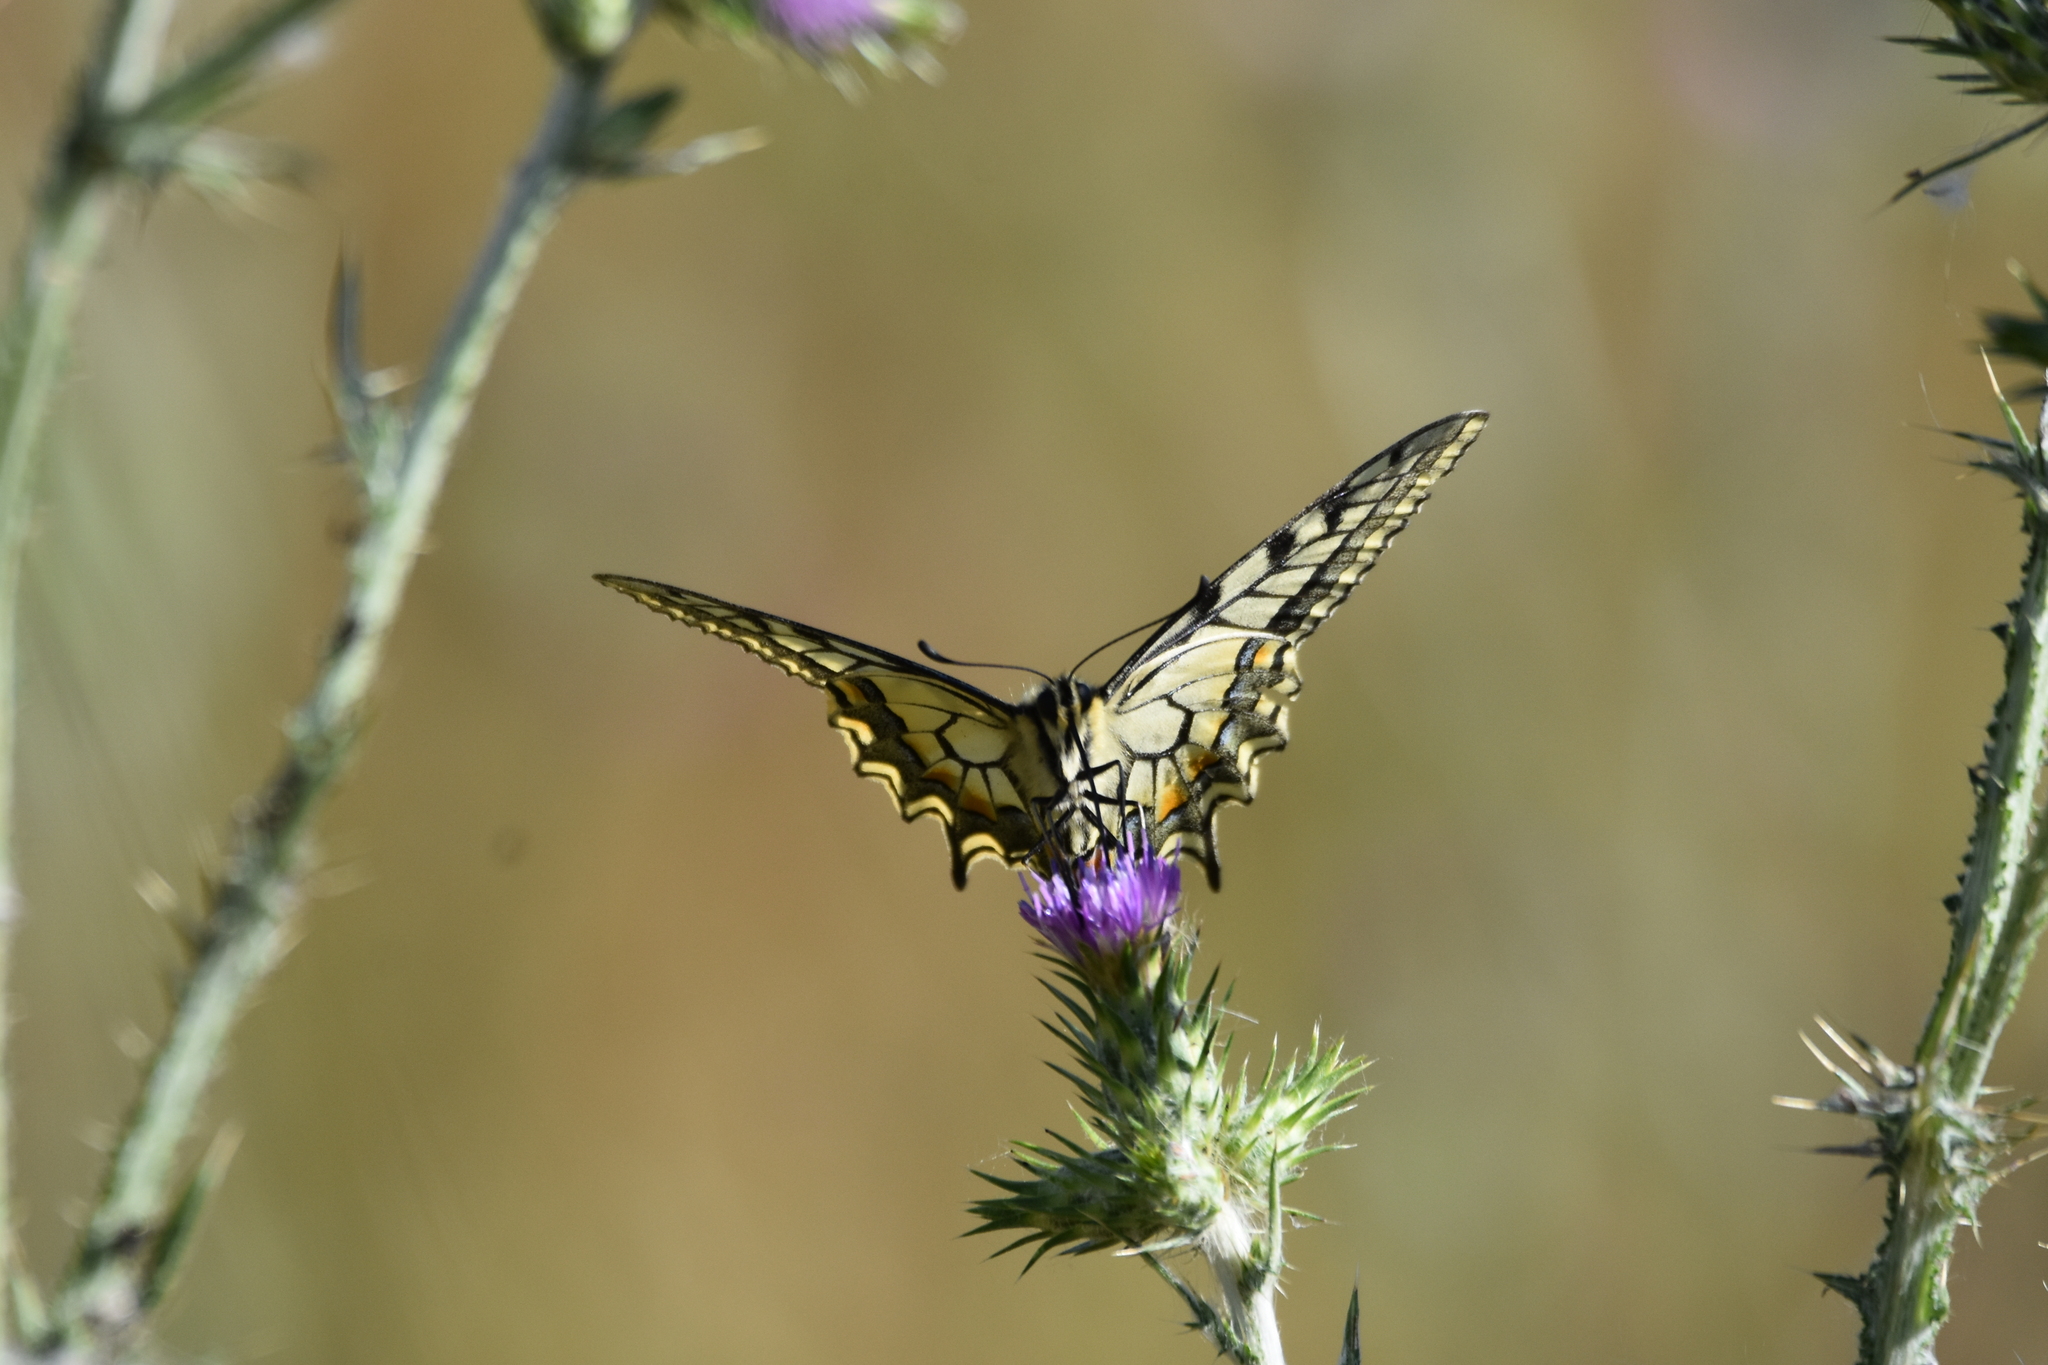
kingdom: Animalia
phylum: Arthropoda
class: Insecta
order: Lepidoptera
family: Papilionidae
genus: Papilio
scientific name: Papilio machaon
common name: Swallowtail
